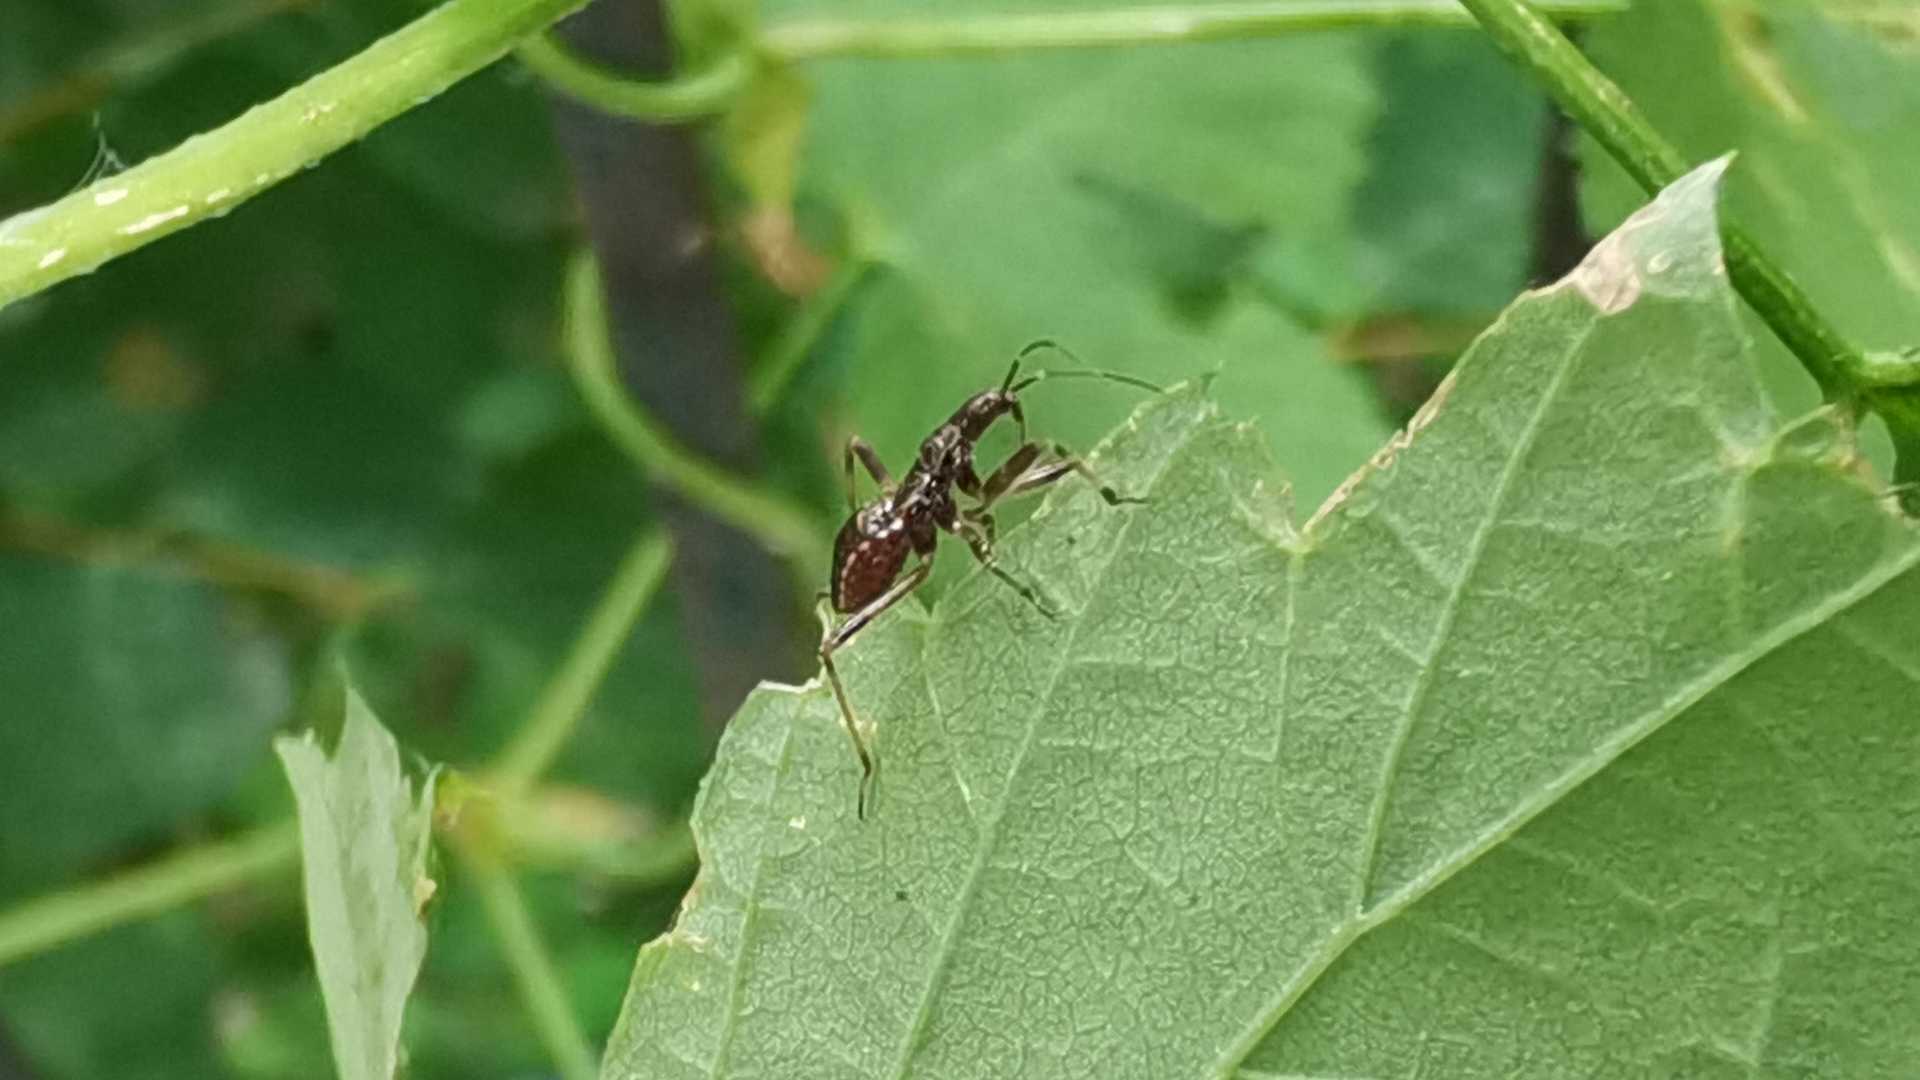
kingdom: Animalia
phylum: Arthropoda
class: Insecta
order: Hemiptera
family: Nabidae
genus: Himacerus
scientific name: Himacerus apterus
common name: Tree damsel bug
